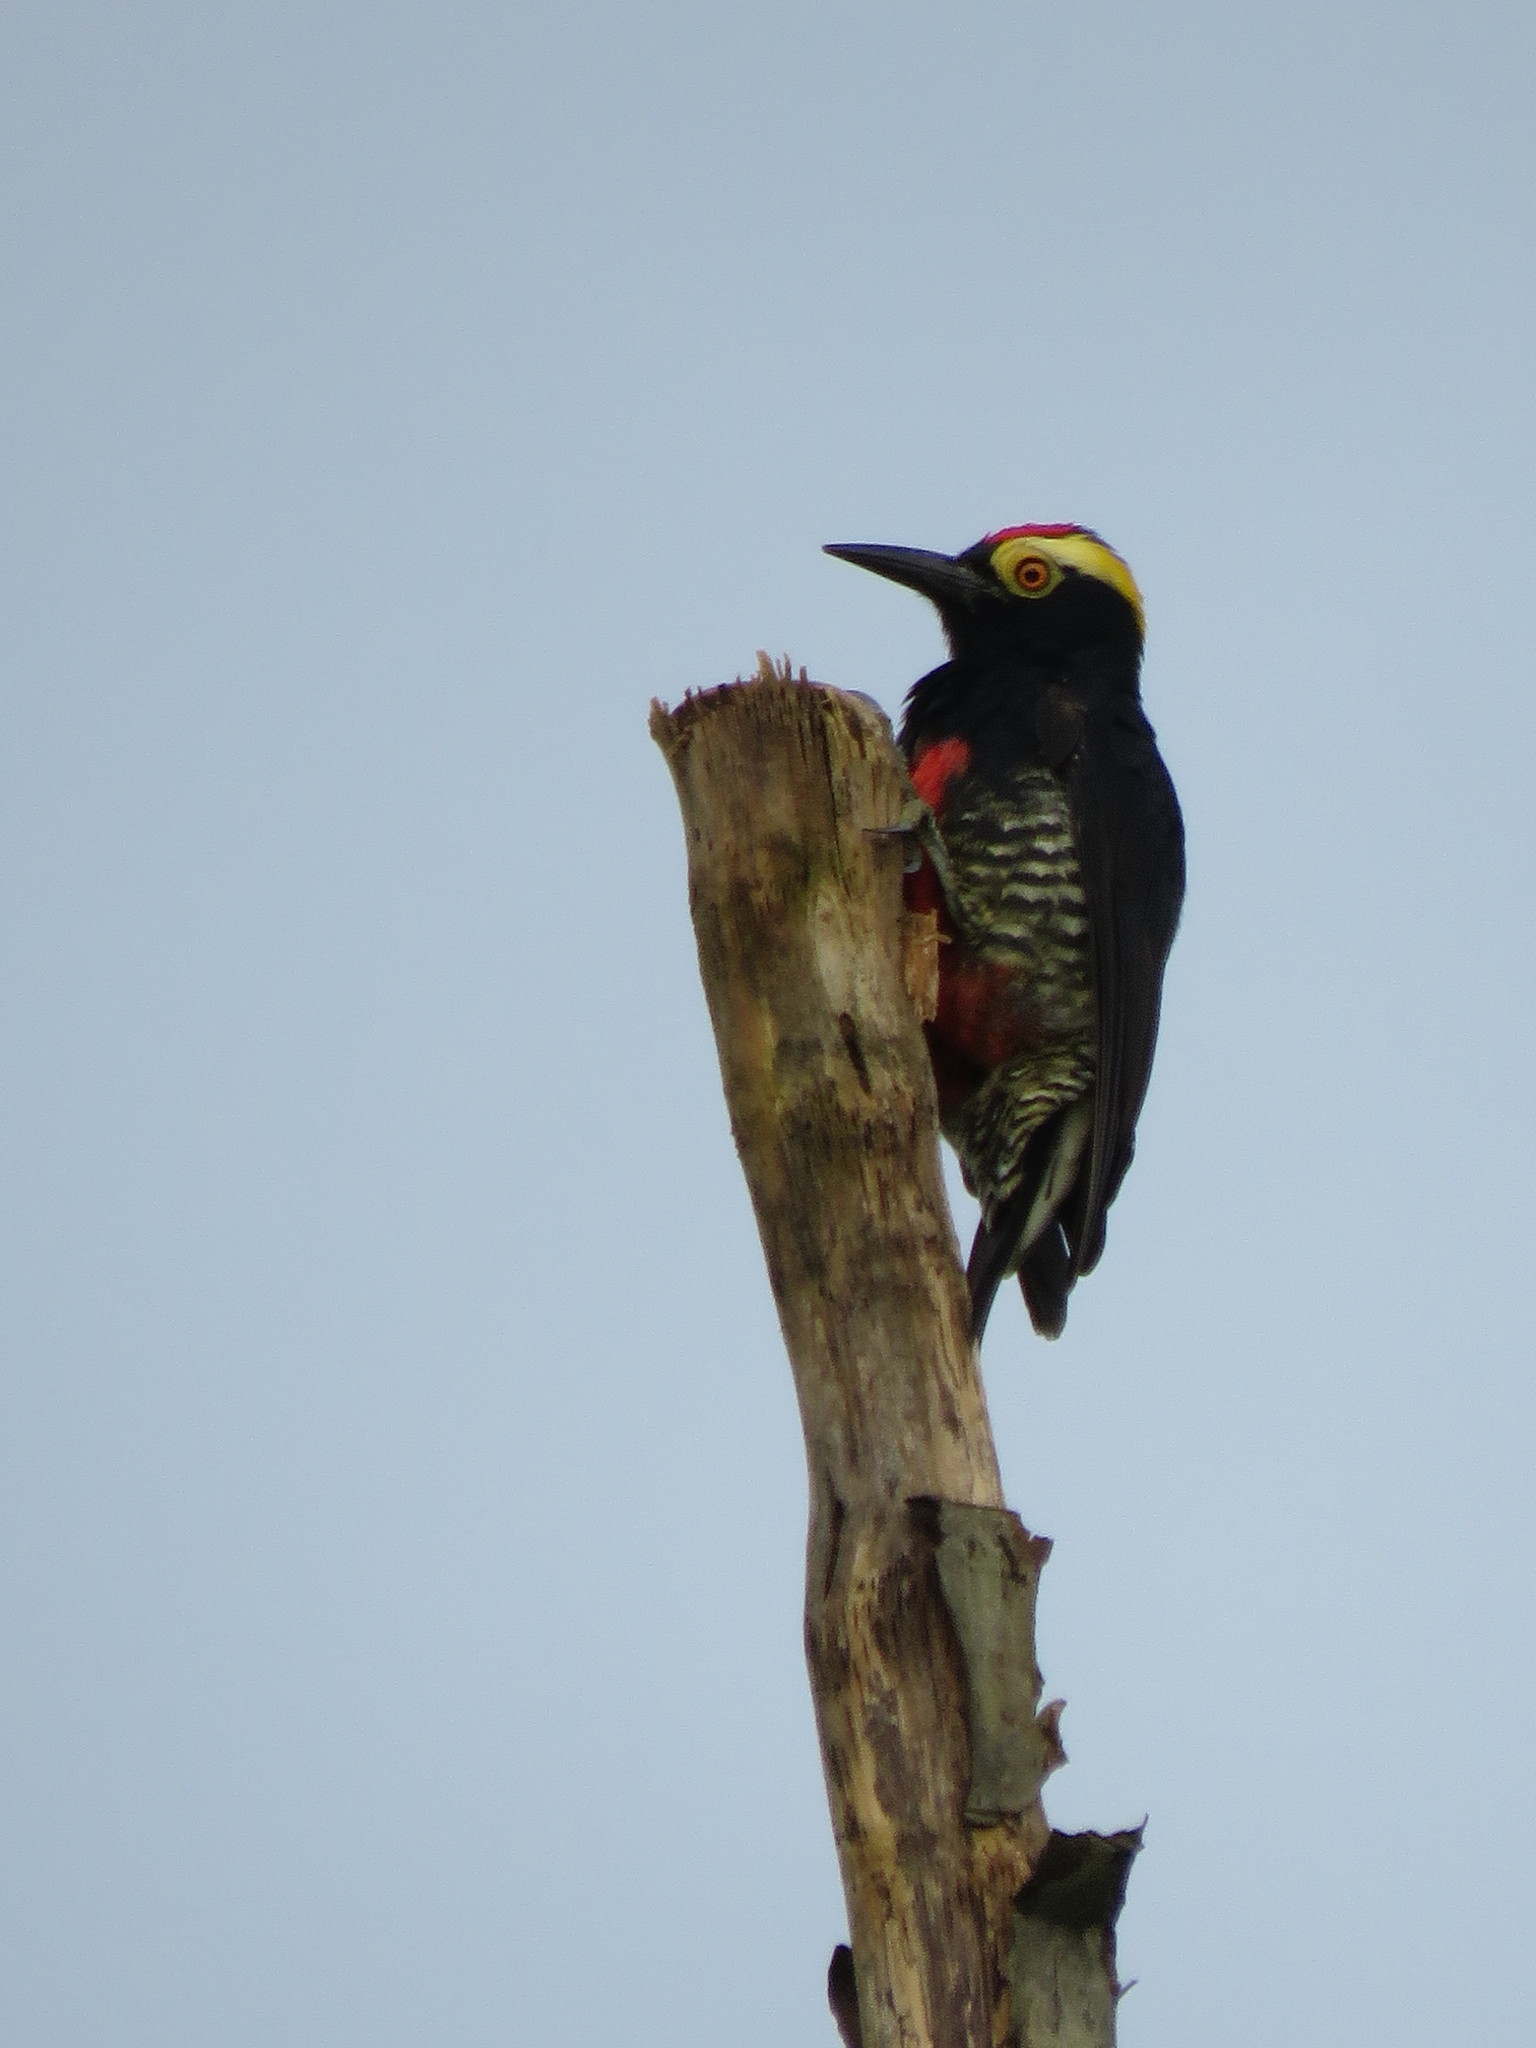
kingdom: Animalia
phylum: Chordata
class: Aves
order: Piciformes
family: Picidae
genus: Melanerpes
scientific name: Melanerpes cruentatus
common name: Yellow-tufted woodpecker
